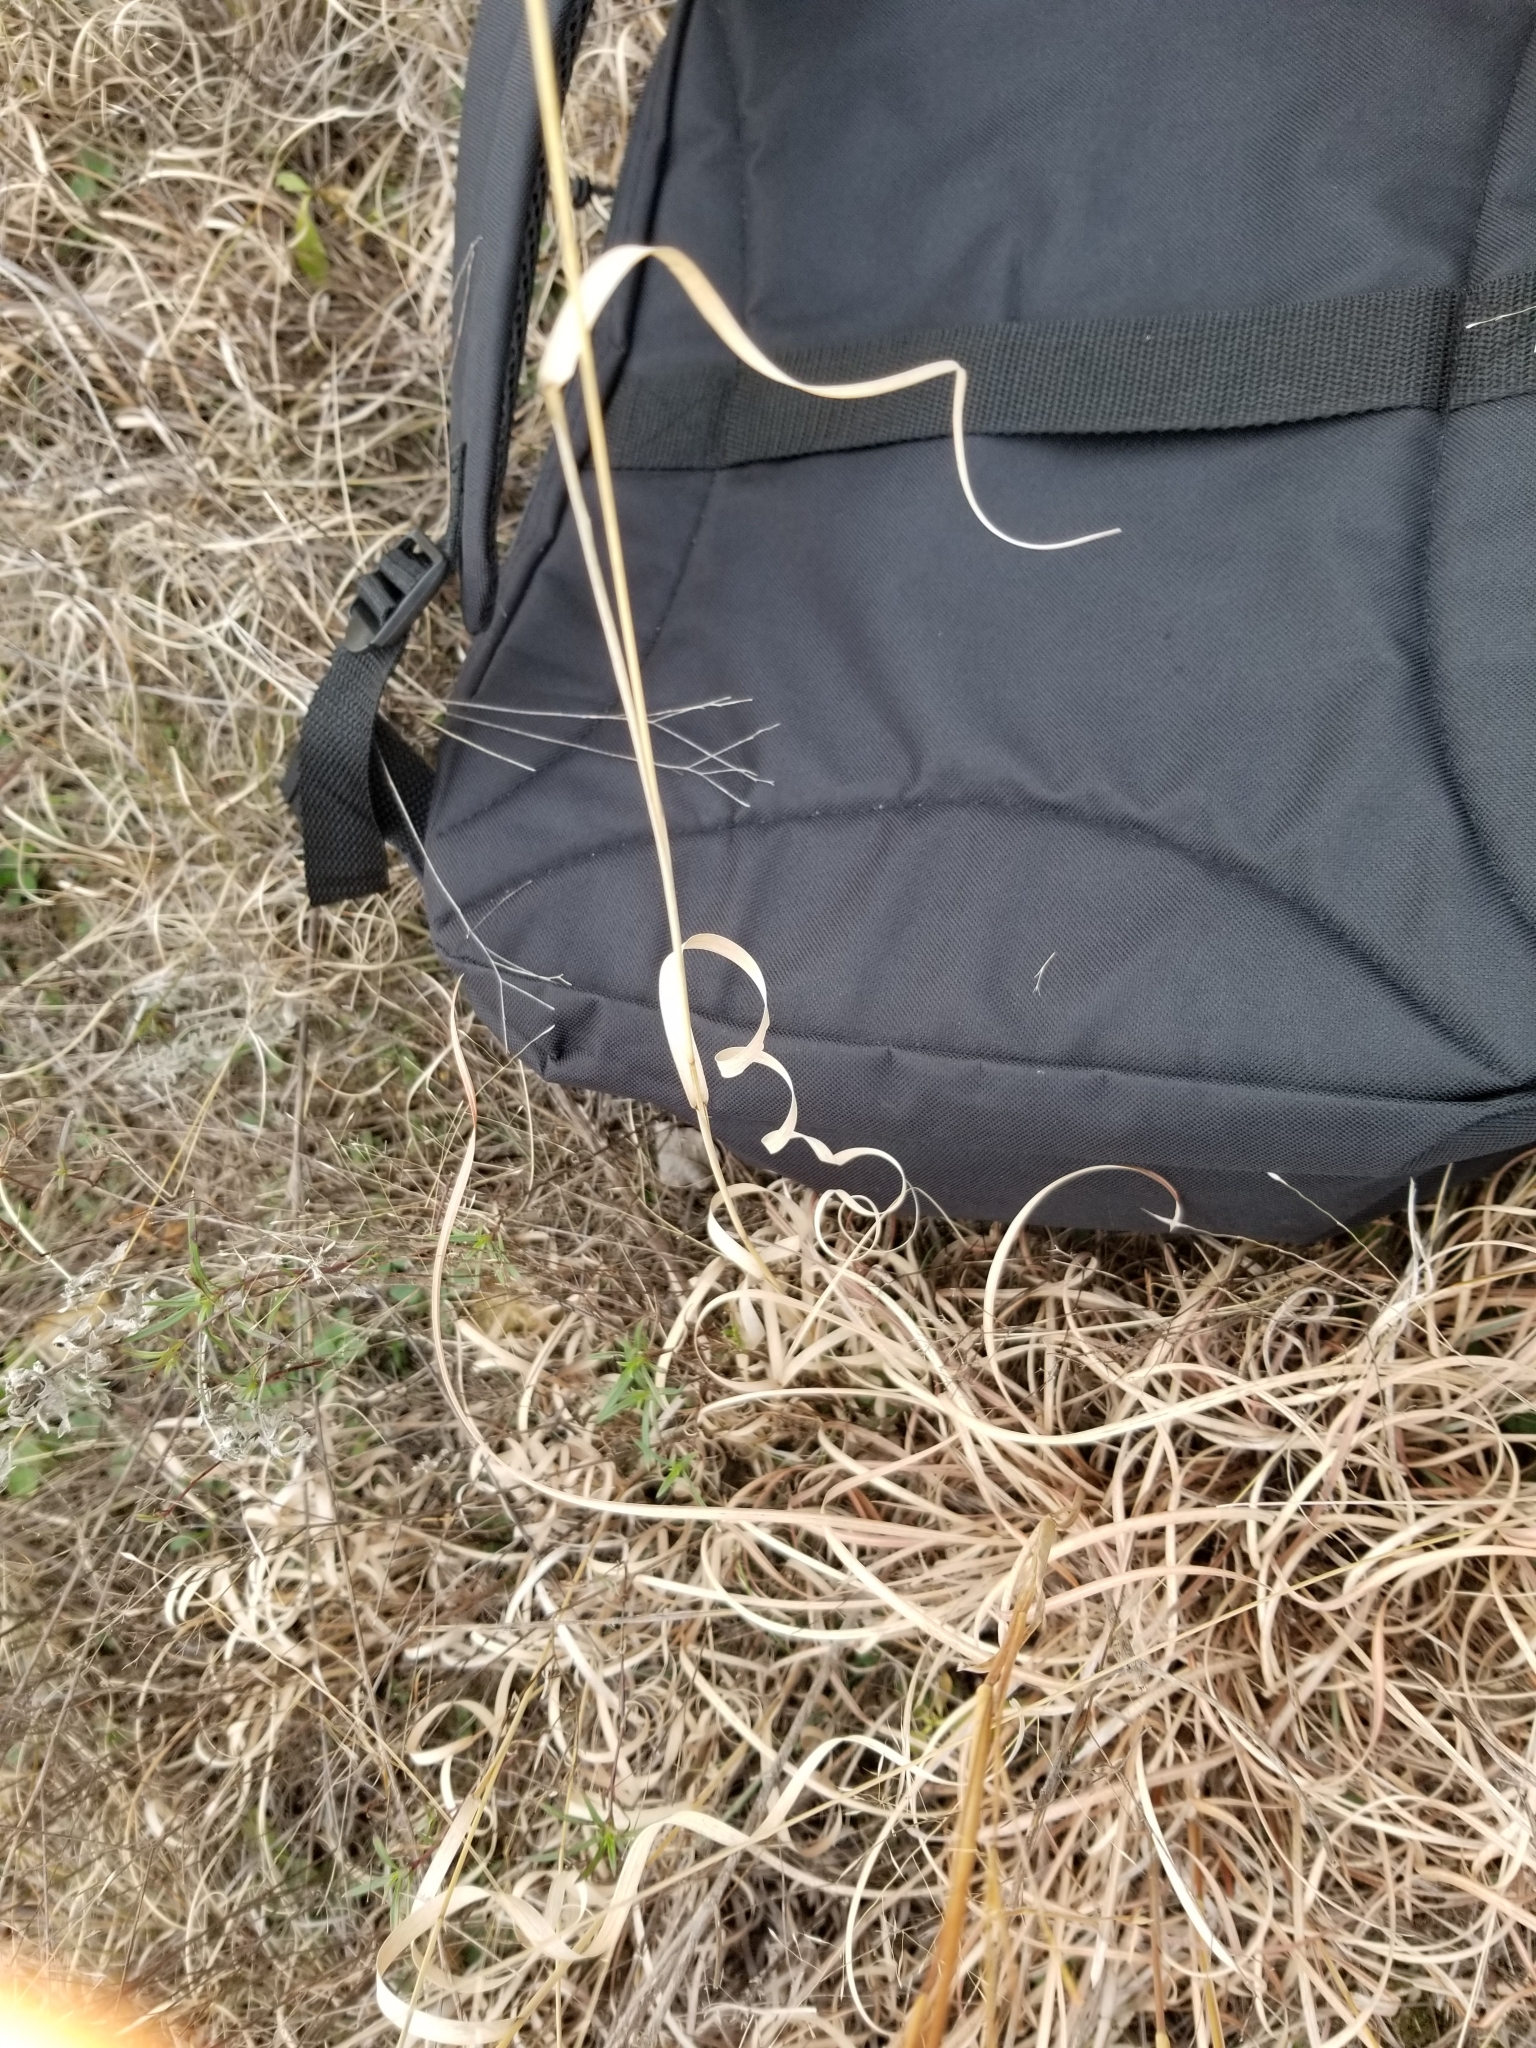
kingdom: Plantae
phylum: Tracheophyta
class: Liliopsida
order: Poales
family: Poaceae
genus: Bouteloua
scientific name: Bouteloua curtipendula
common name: Side-oats grama
